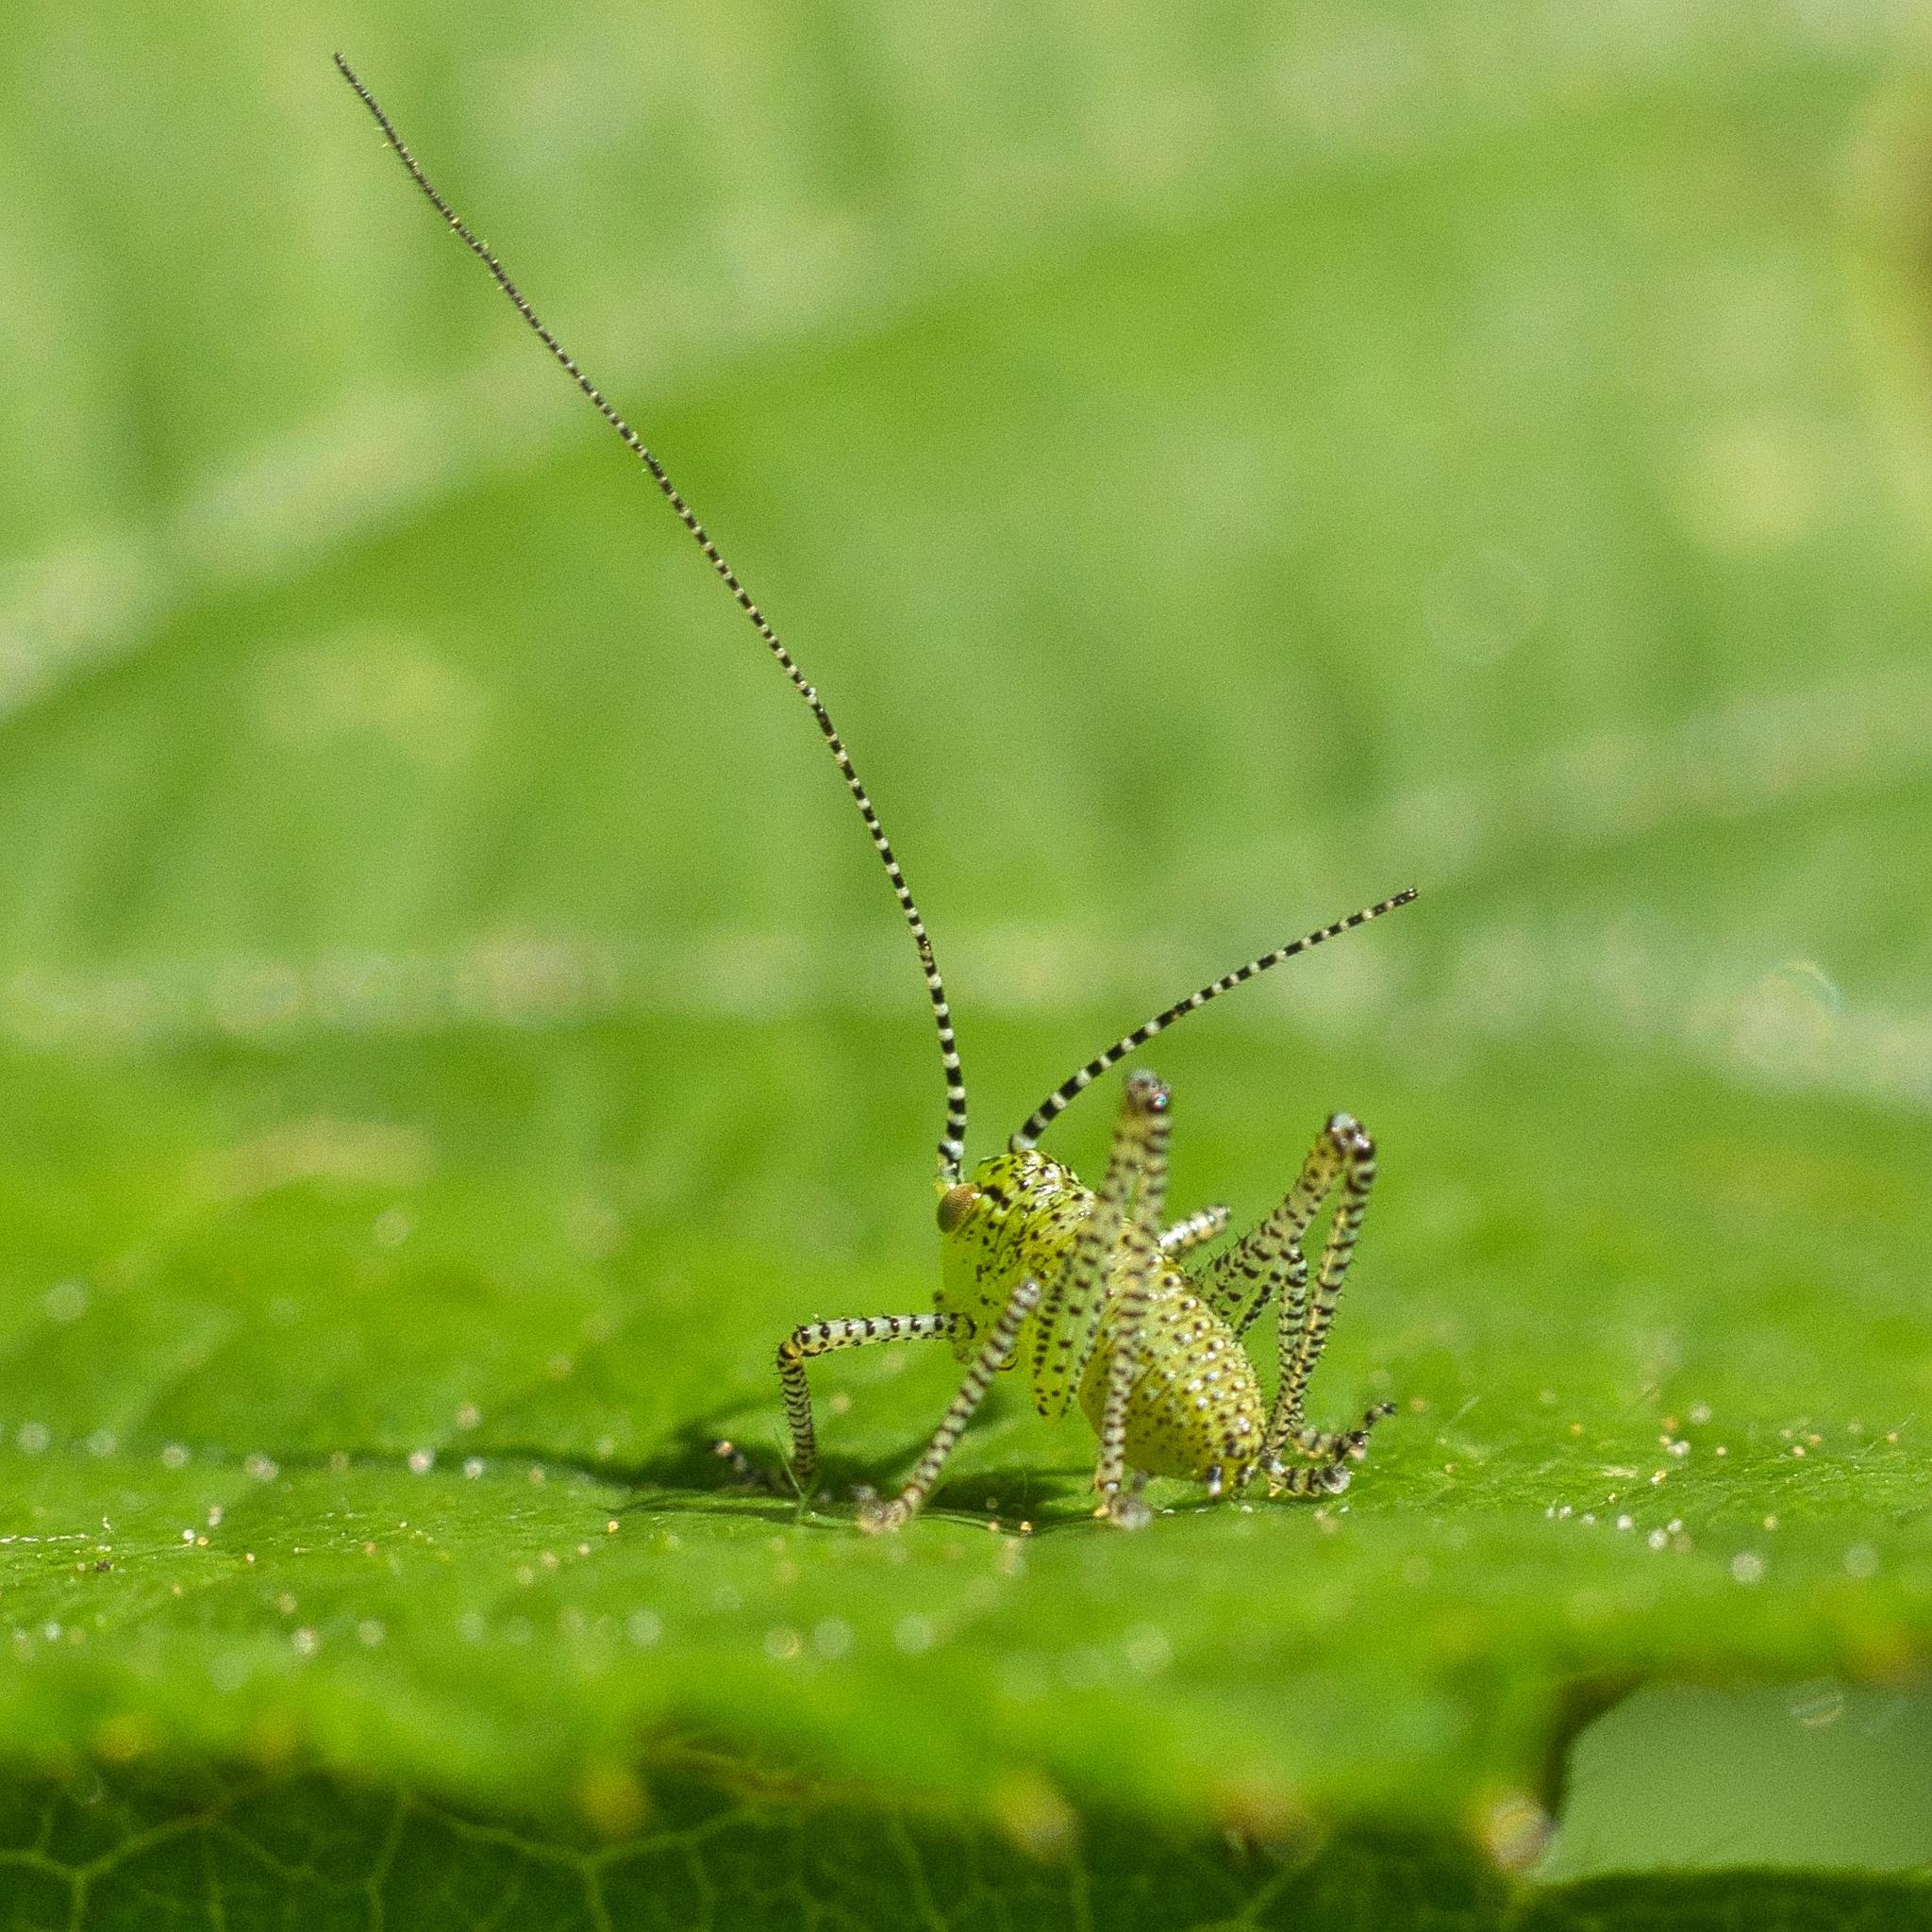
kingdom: Animalia
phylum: Arthropoda
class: Insecta
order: Orthoptera
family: Tettigoniidae
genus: Leptophyes
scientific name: Leptophyes punctatissima
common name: Speckled bush-cricket
